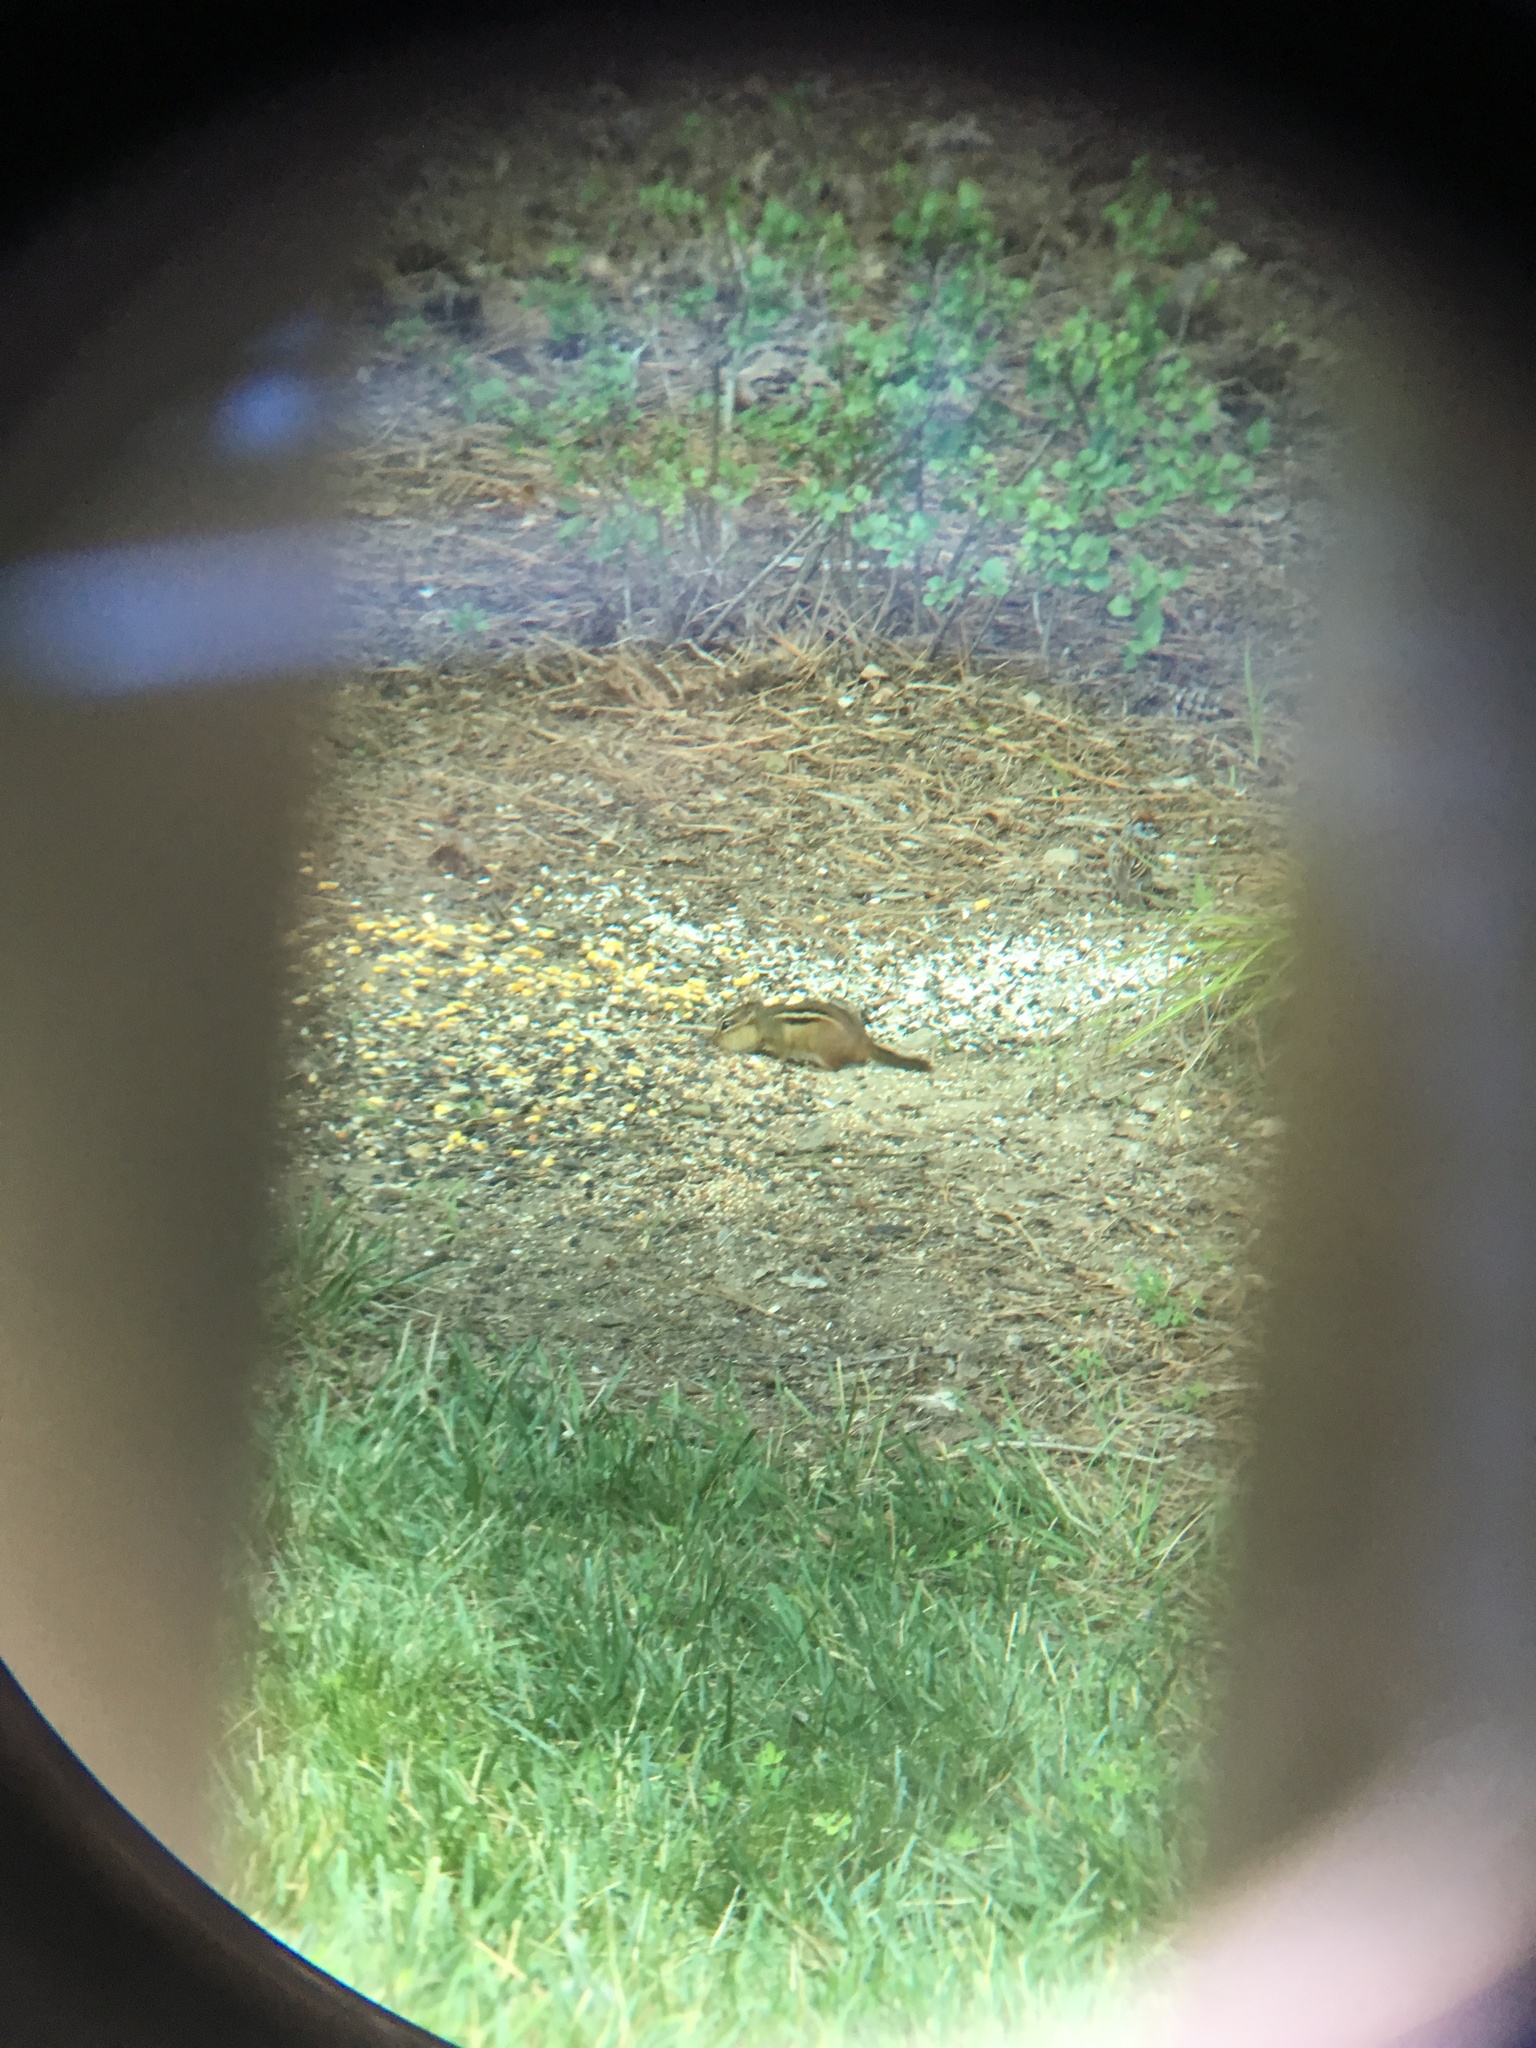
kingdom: Animalia
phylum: Chordata
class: Mammalia
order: Rodentia
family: Sciuridae
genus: Tamias
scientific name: Tamias striatus
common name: Eastern chipmunk
